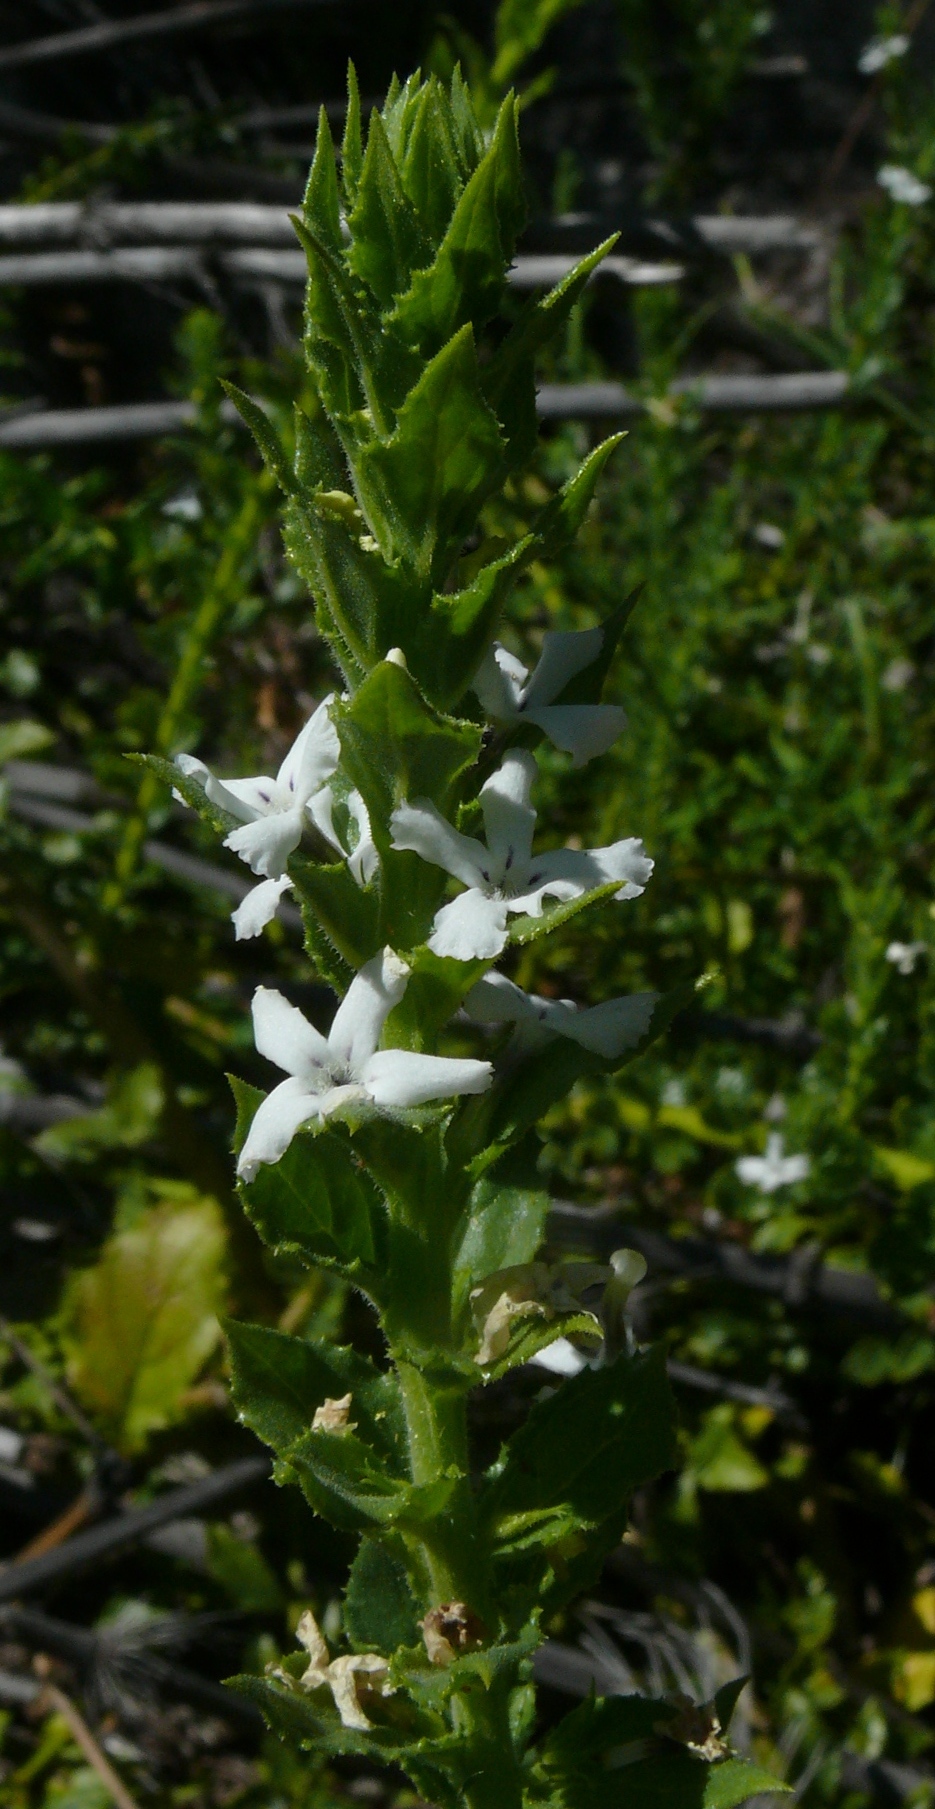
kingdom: Plantae
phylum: Tracheophyta
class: Magnoliopsida
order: Lamiales
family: Scrophulariaceae
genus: Oftia
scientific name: Oftia africana
